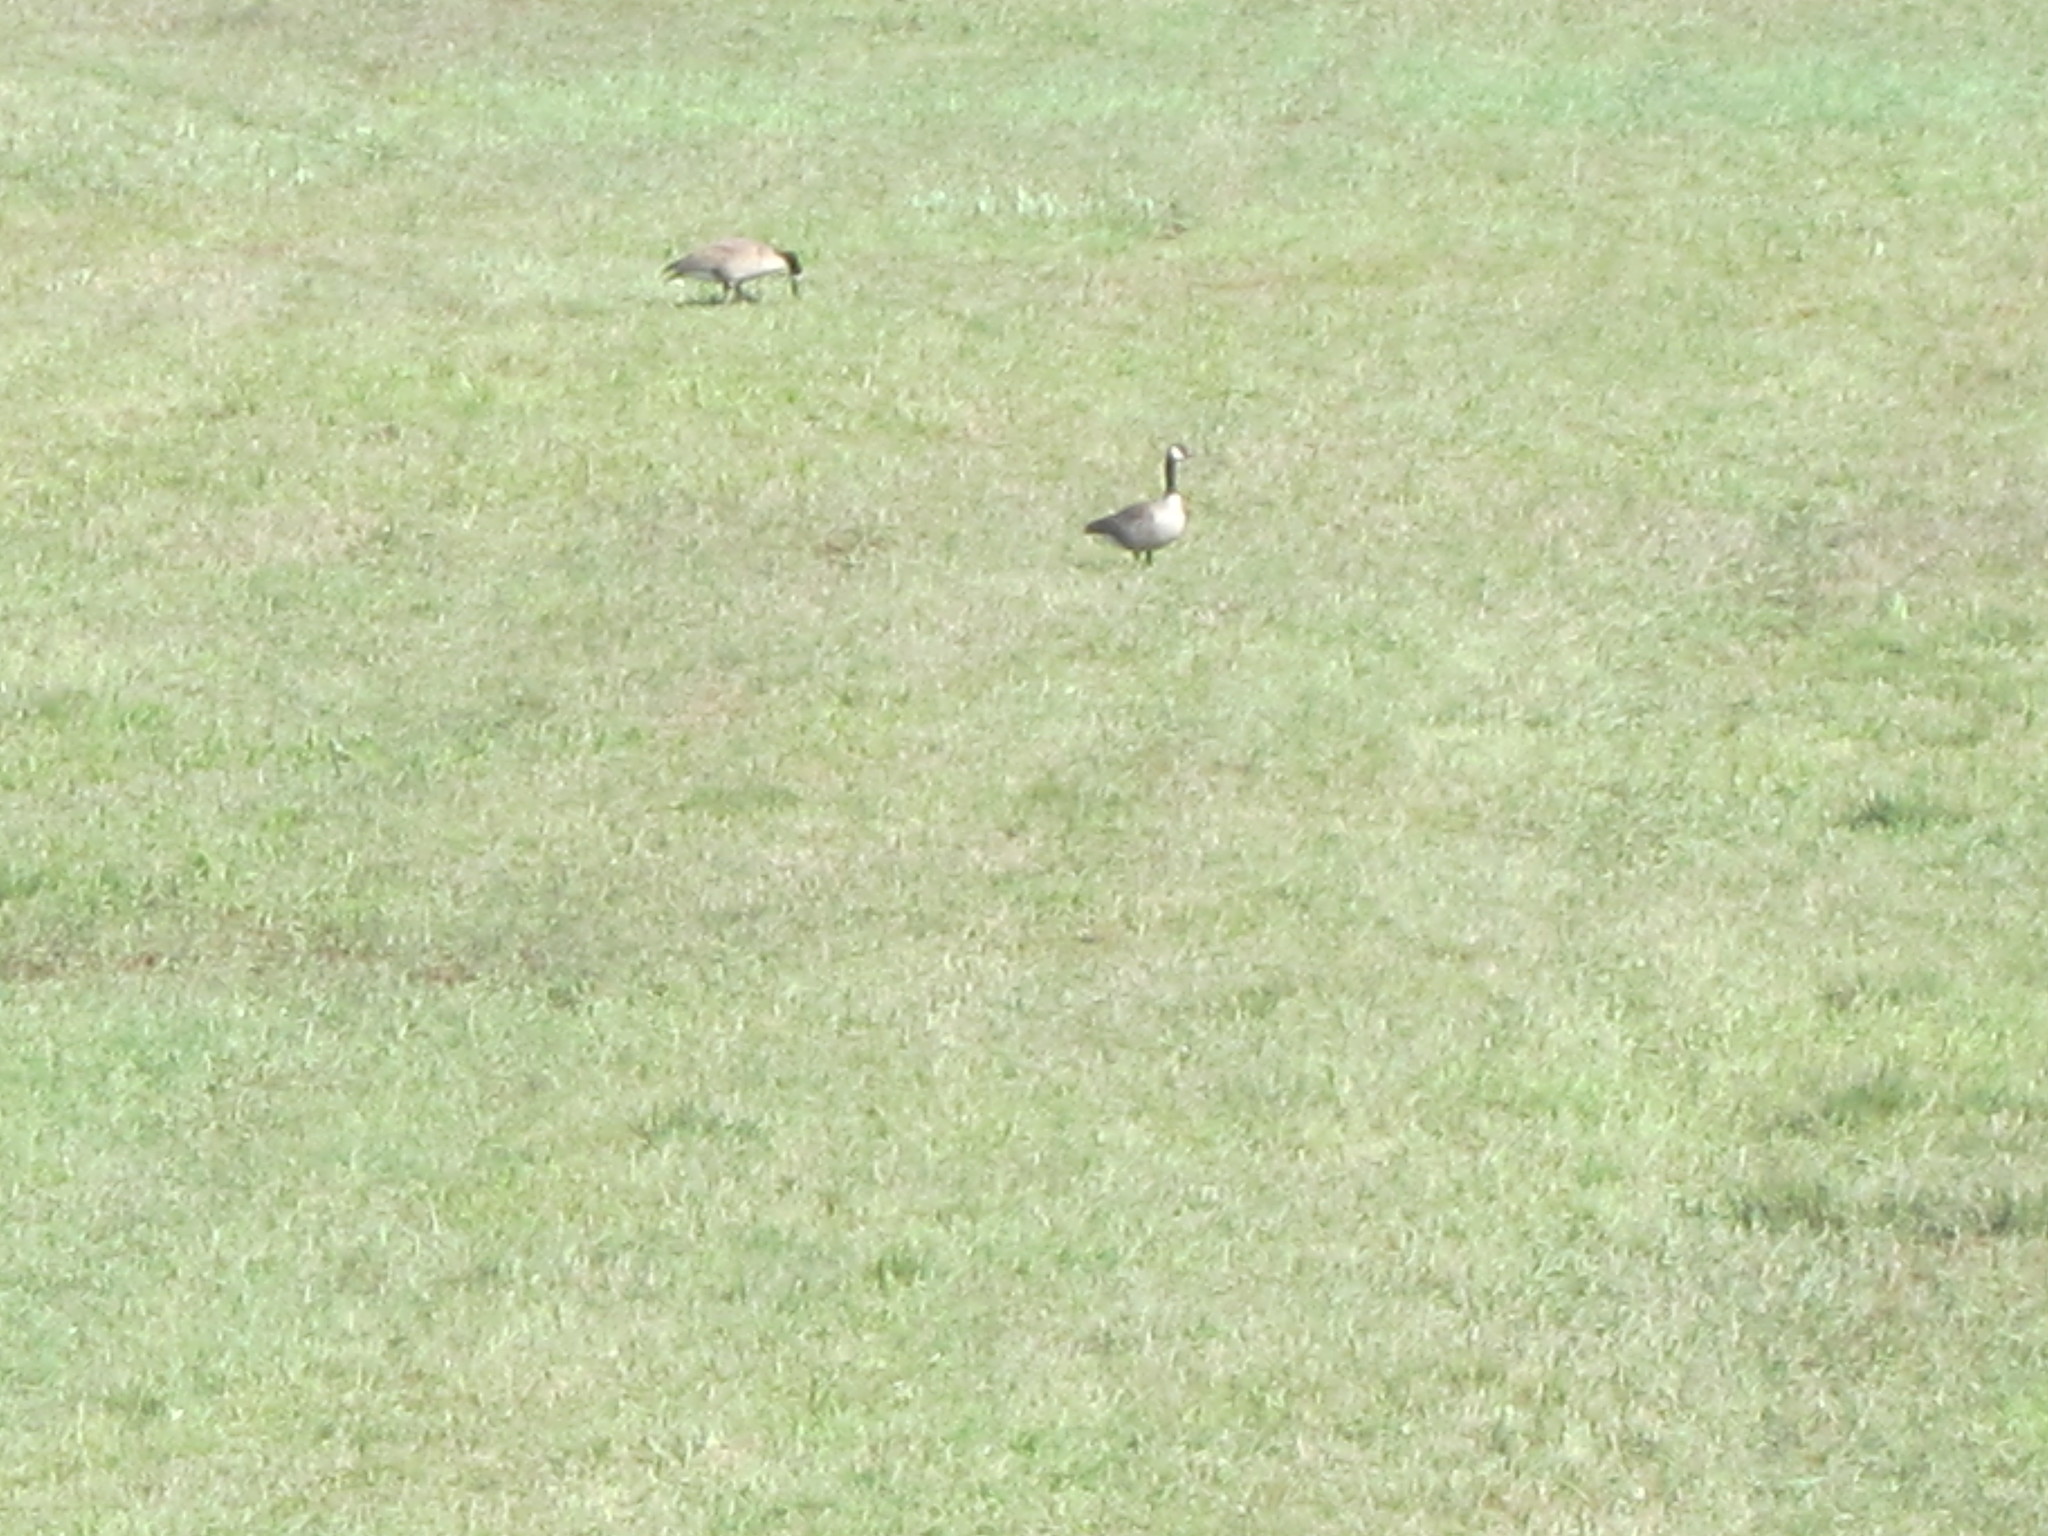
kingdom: Animalia
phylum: Chordata
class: Aves
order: Anseriformes
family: Anatidae
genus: Branta
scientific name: Branta canadensis
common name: Canada goose
